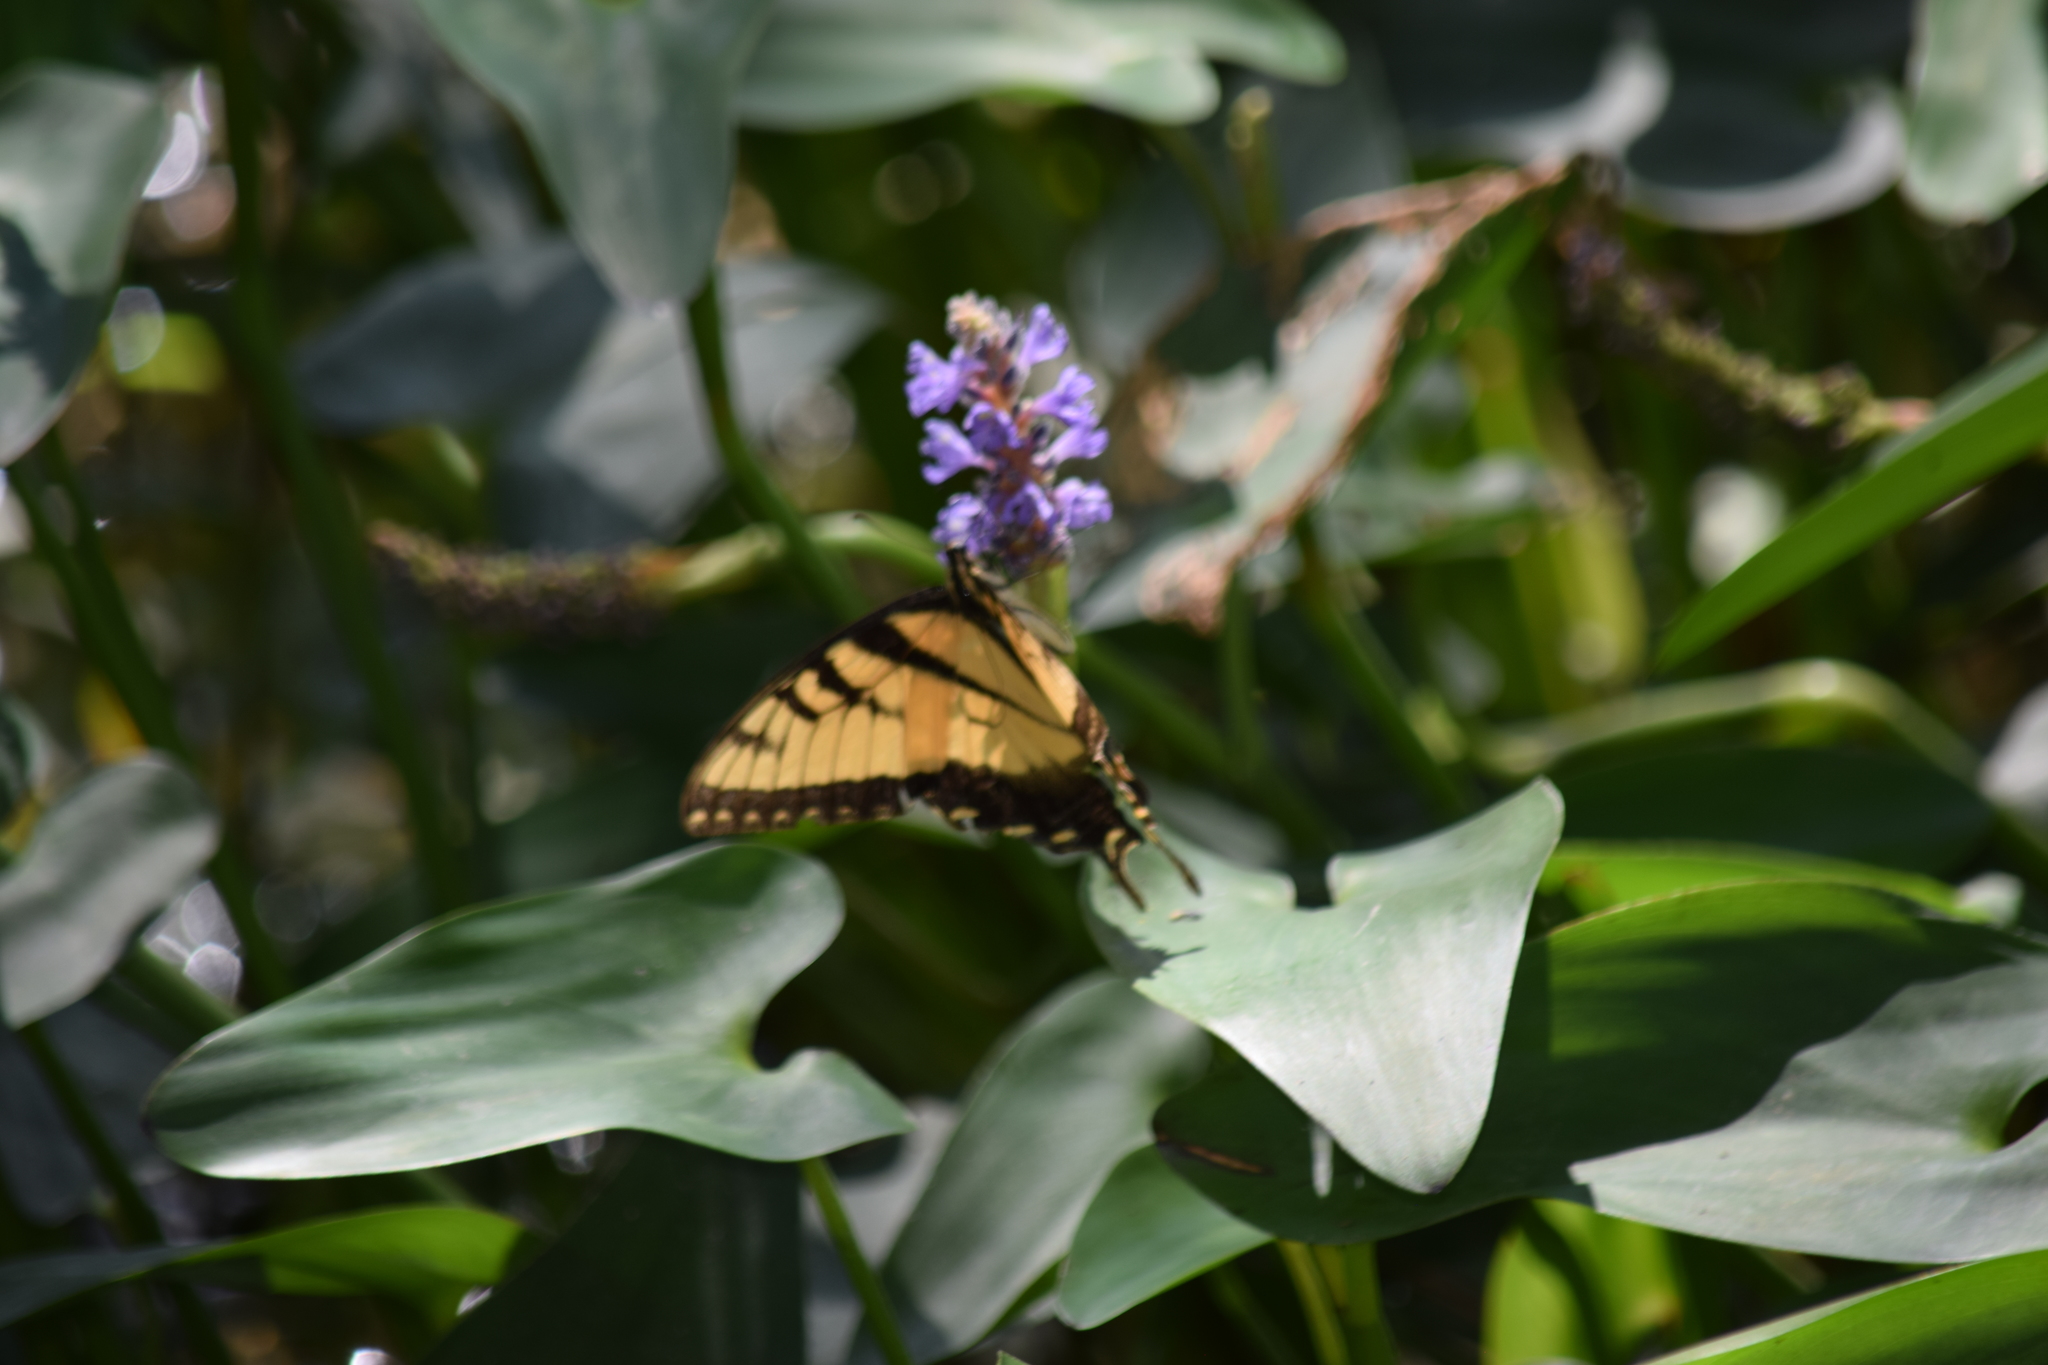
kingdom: Animalia
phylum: Arthropoda
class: Insecta
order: Lepidoptera
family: Papilionidae
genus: Papilio
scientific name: Papilio glaucus
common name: Tiger swallowtail
